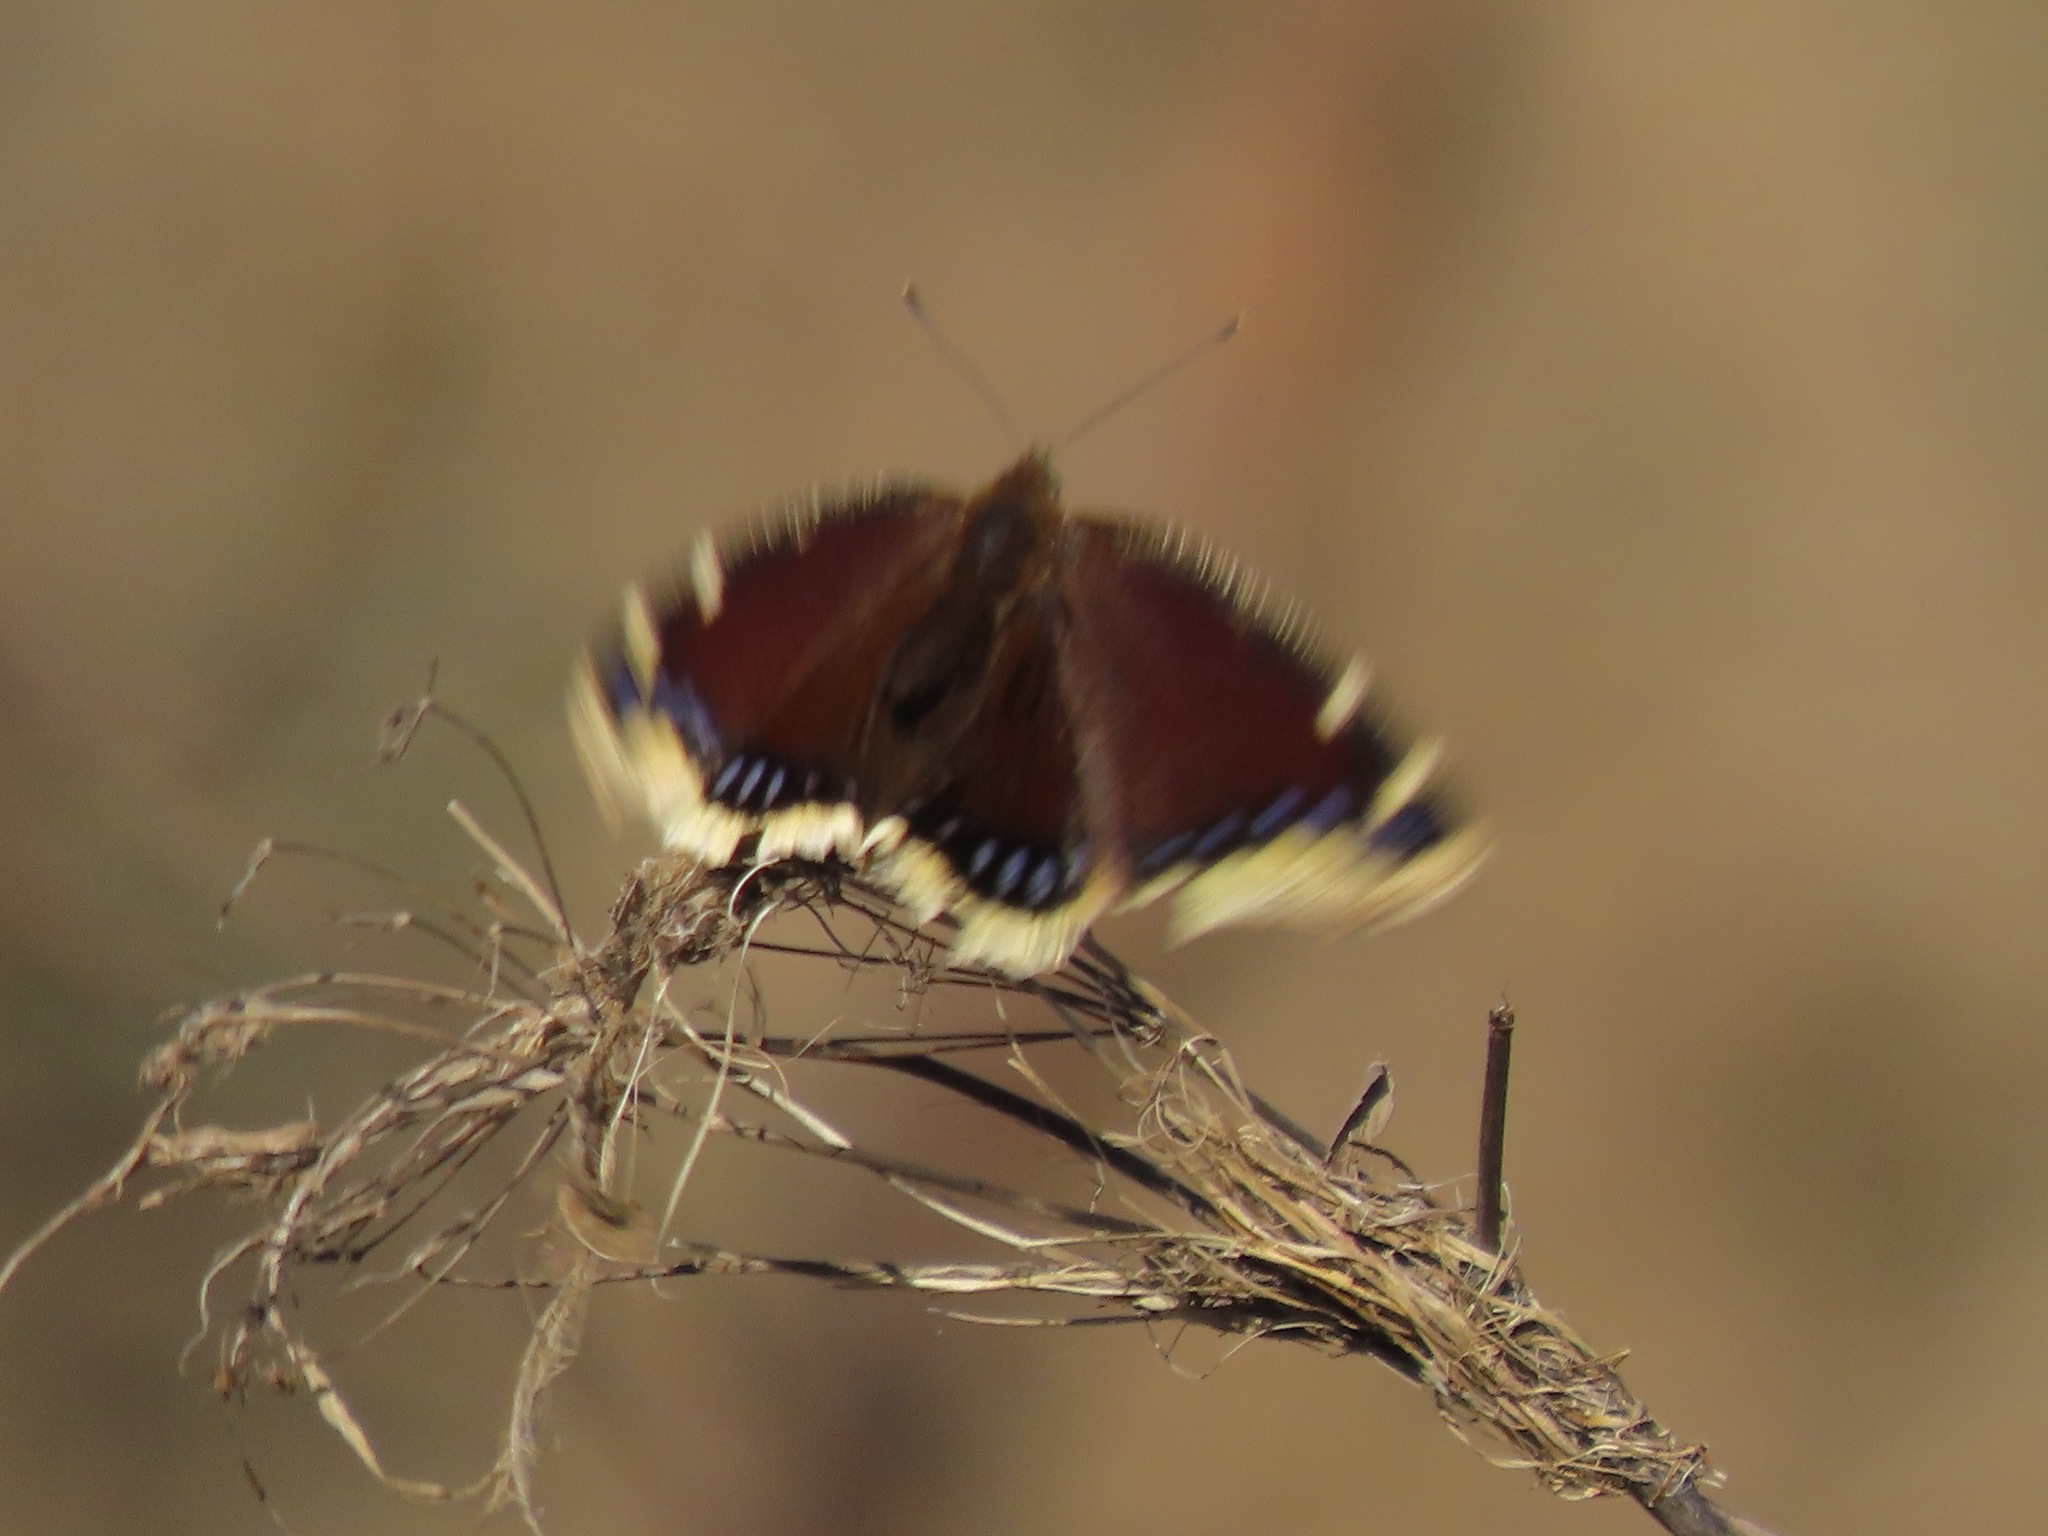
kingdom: Animalia
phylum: Arthropoda
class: Insecta
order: Lepidoptera
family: Nymphalidae
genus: Nymphalis
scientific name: Nymphalis antiopa
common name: Camberwell beauty
